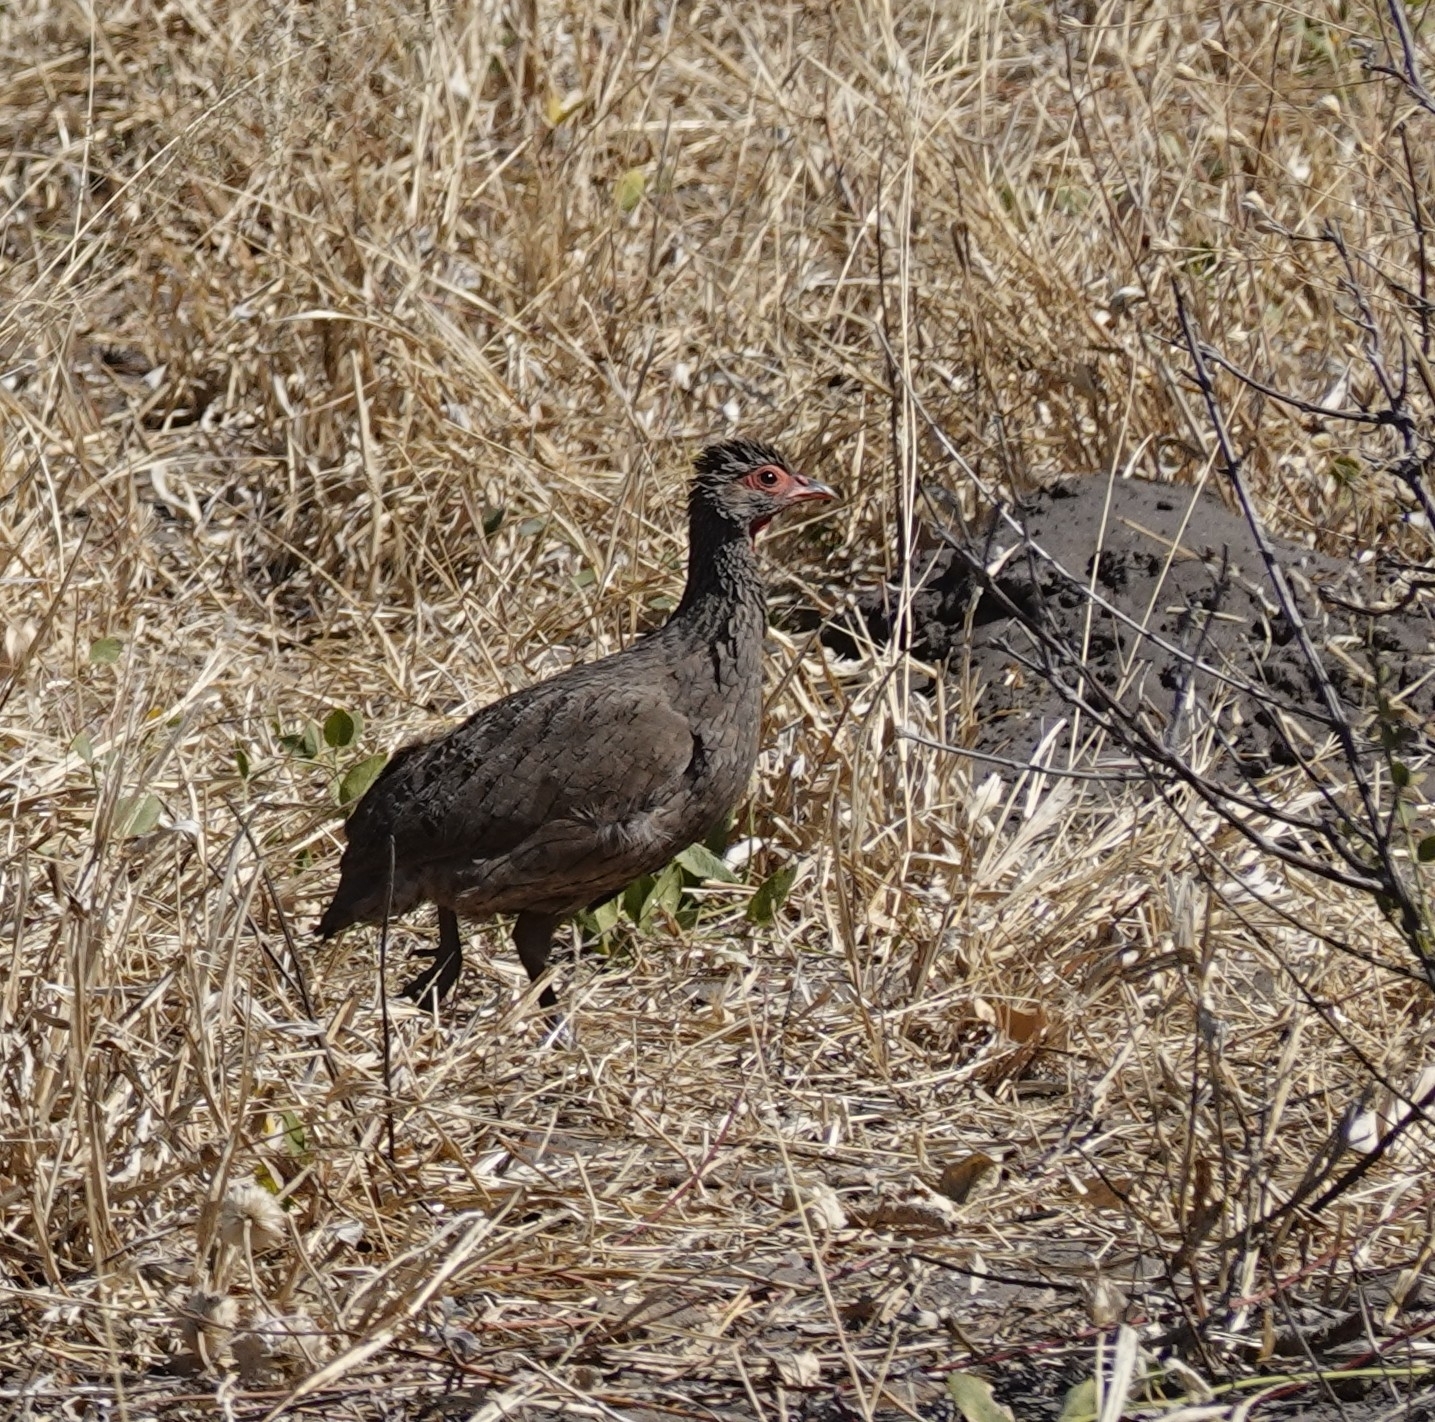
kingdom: Animalia
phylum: Chordata
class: Aves
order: Galliformes
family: Phasianidae
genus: Pternistis
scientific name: Pternistis swainsonii
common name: Swainson's spurfowl
